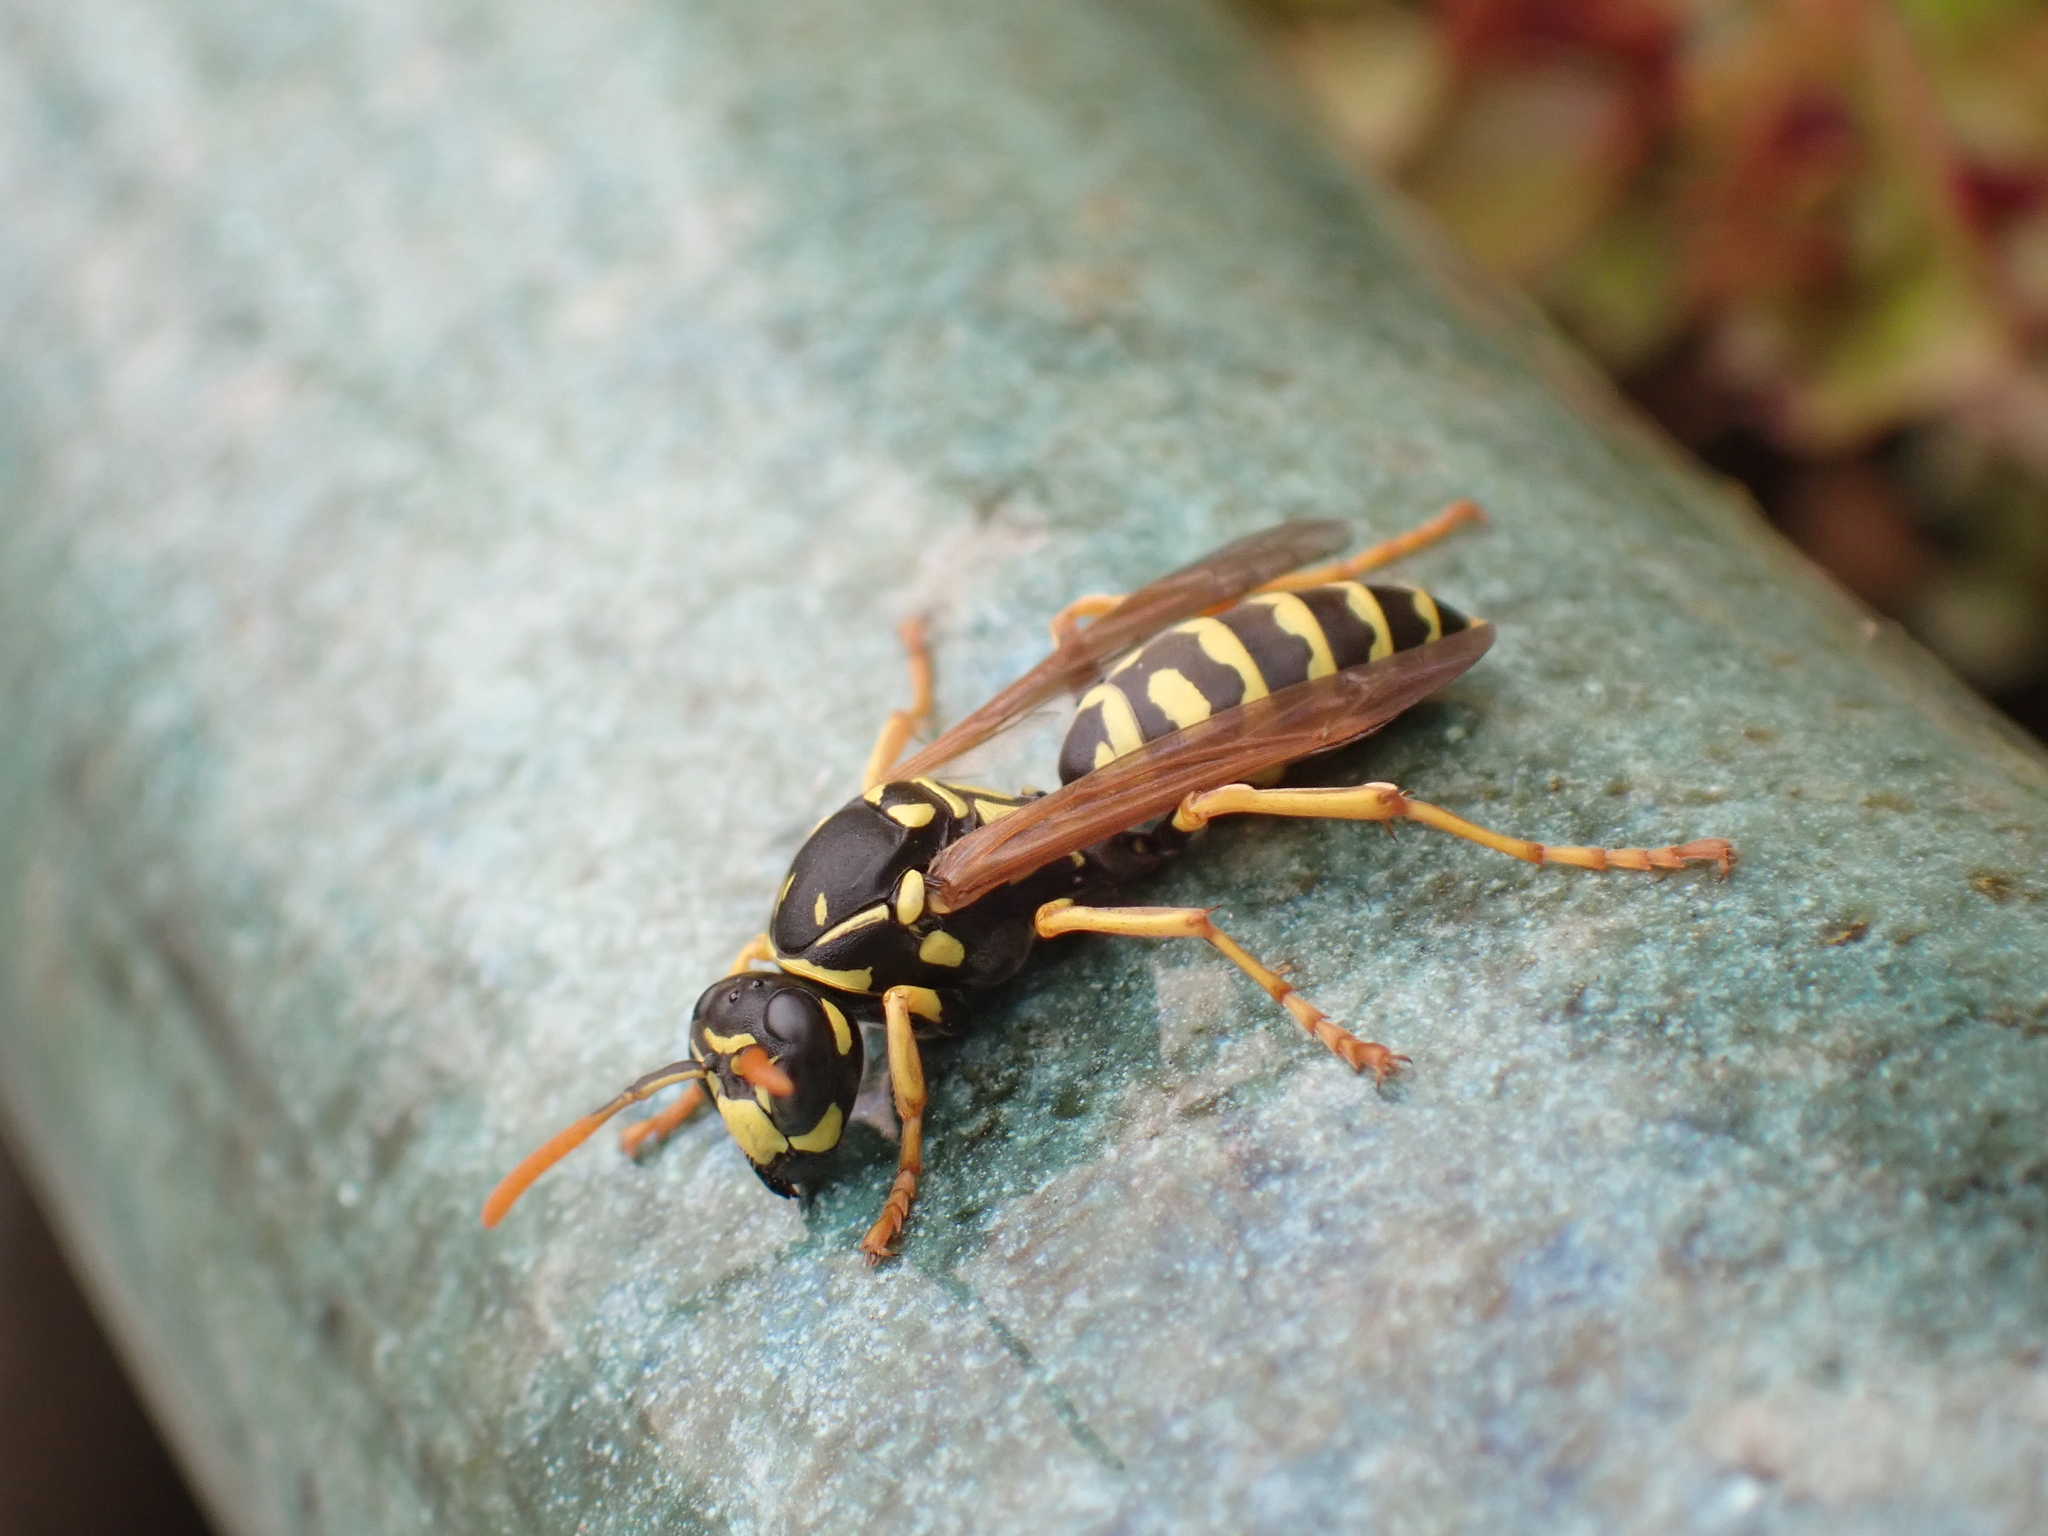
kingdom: Animalia
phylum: Arthropoda
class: Insecta
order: Hymenoptera
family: Eumenidae
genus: Polistes
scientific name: Polistes dominula
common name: Paper wasp
